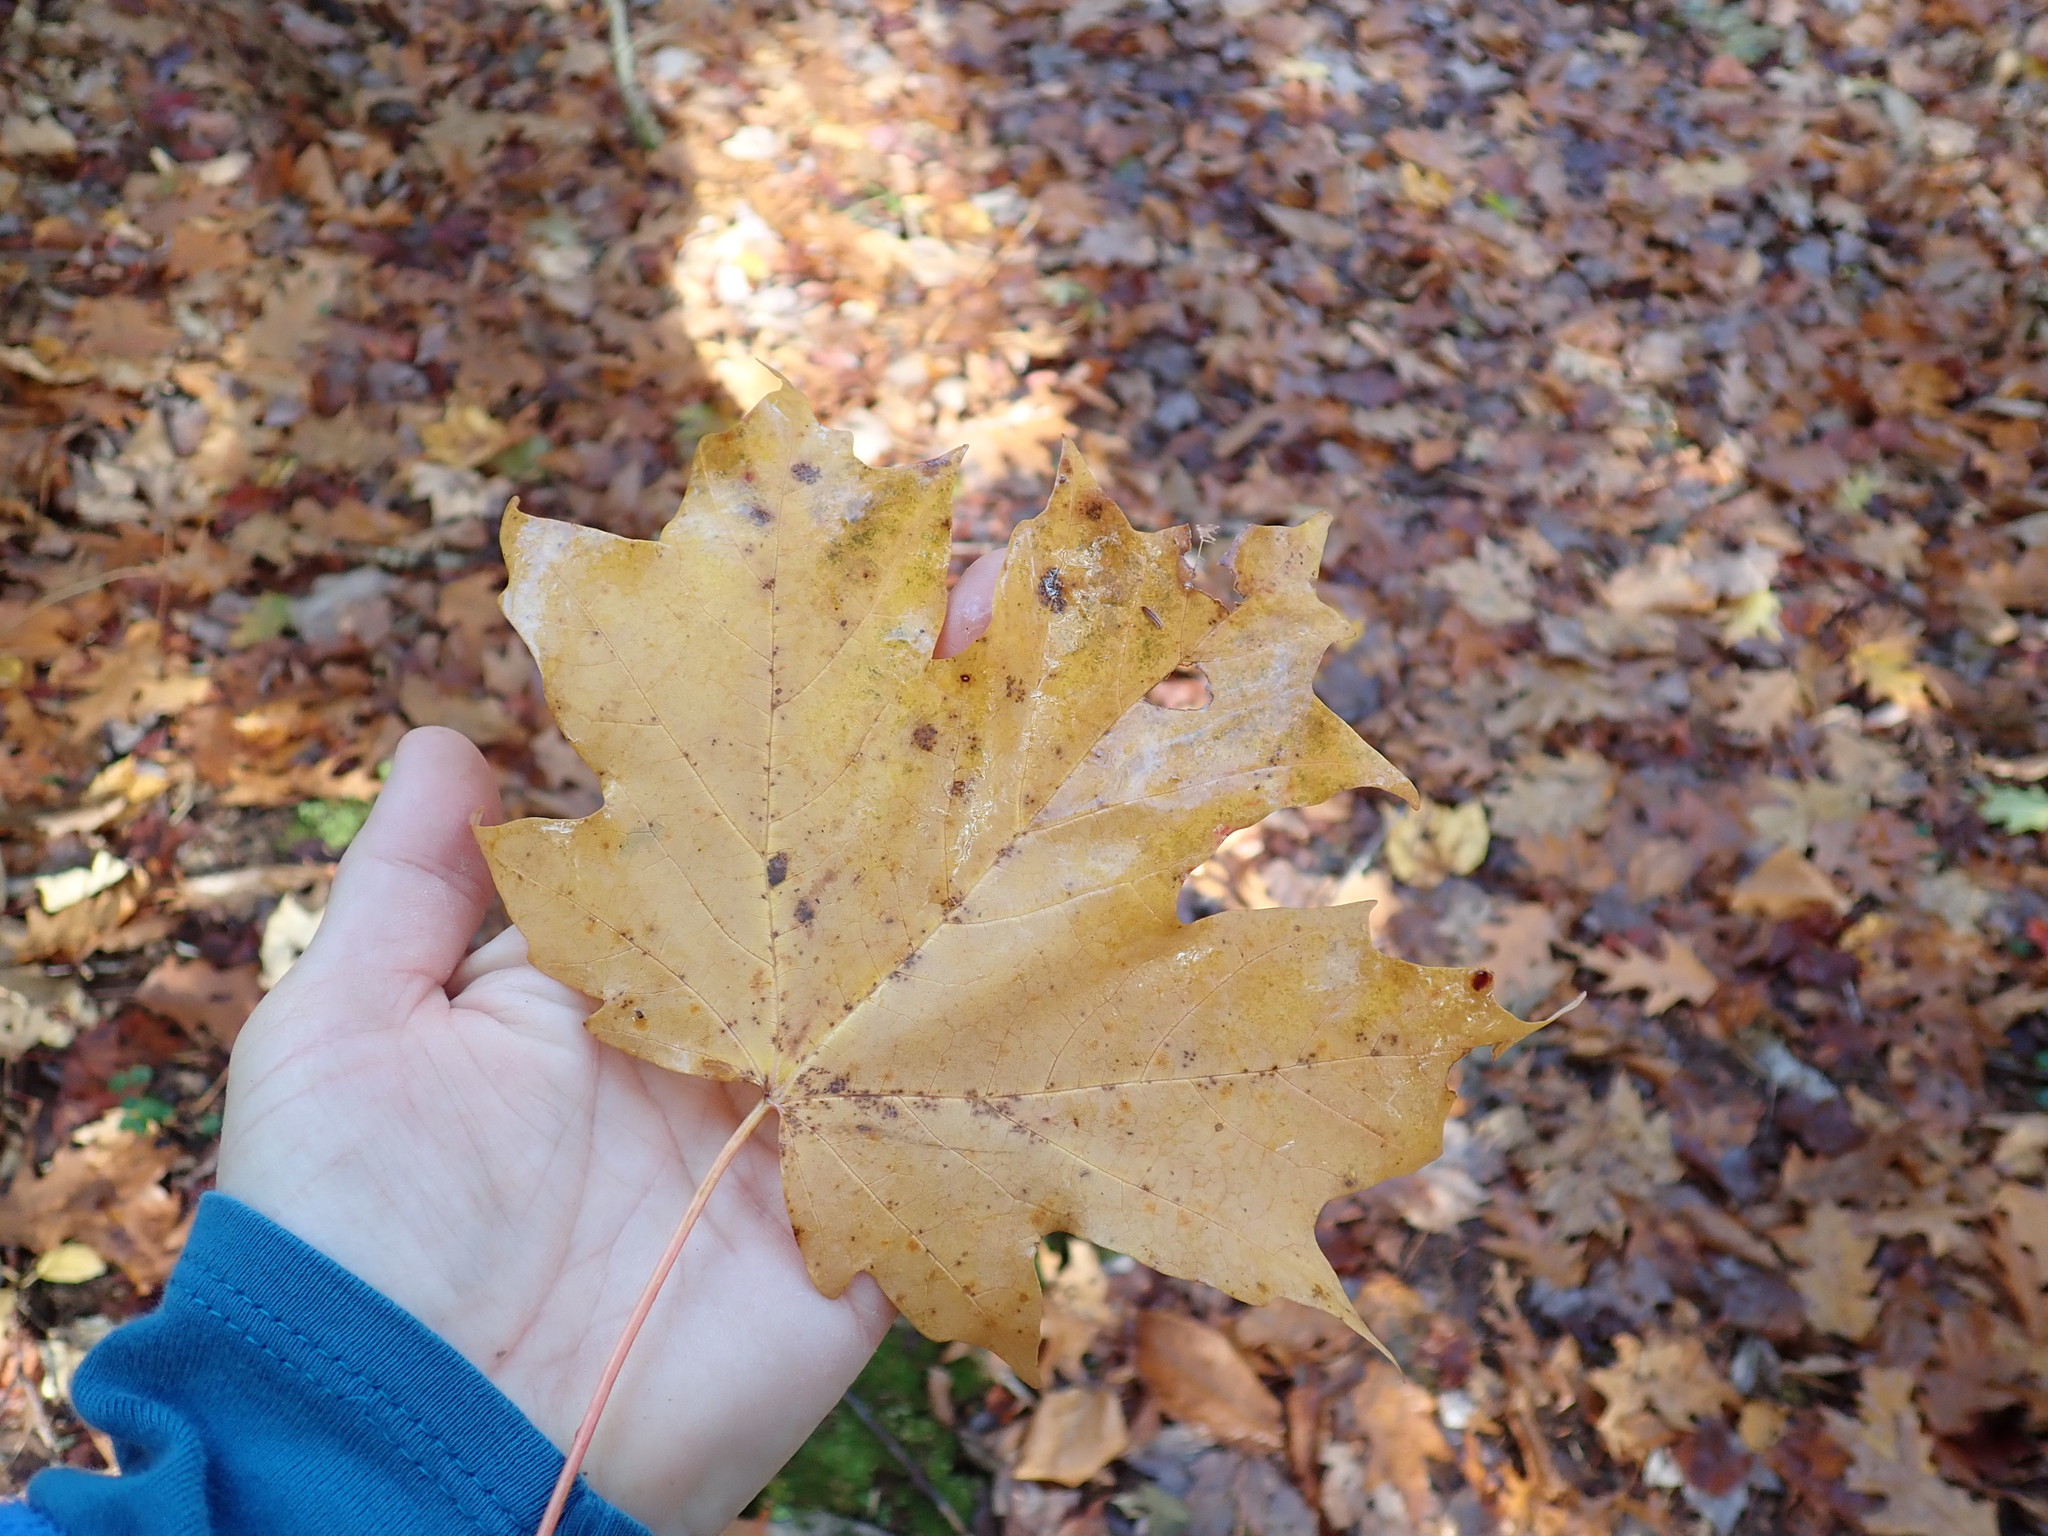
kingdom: Plantae
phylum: Tracheophyta
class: Magnoliopsida
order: Sapindales
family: Sapindaceae
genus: Acer
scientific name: Acer saccharum
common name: Sugar maple
